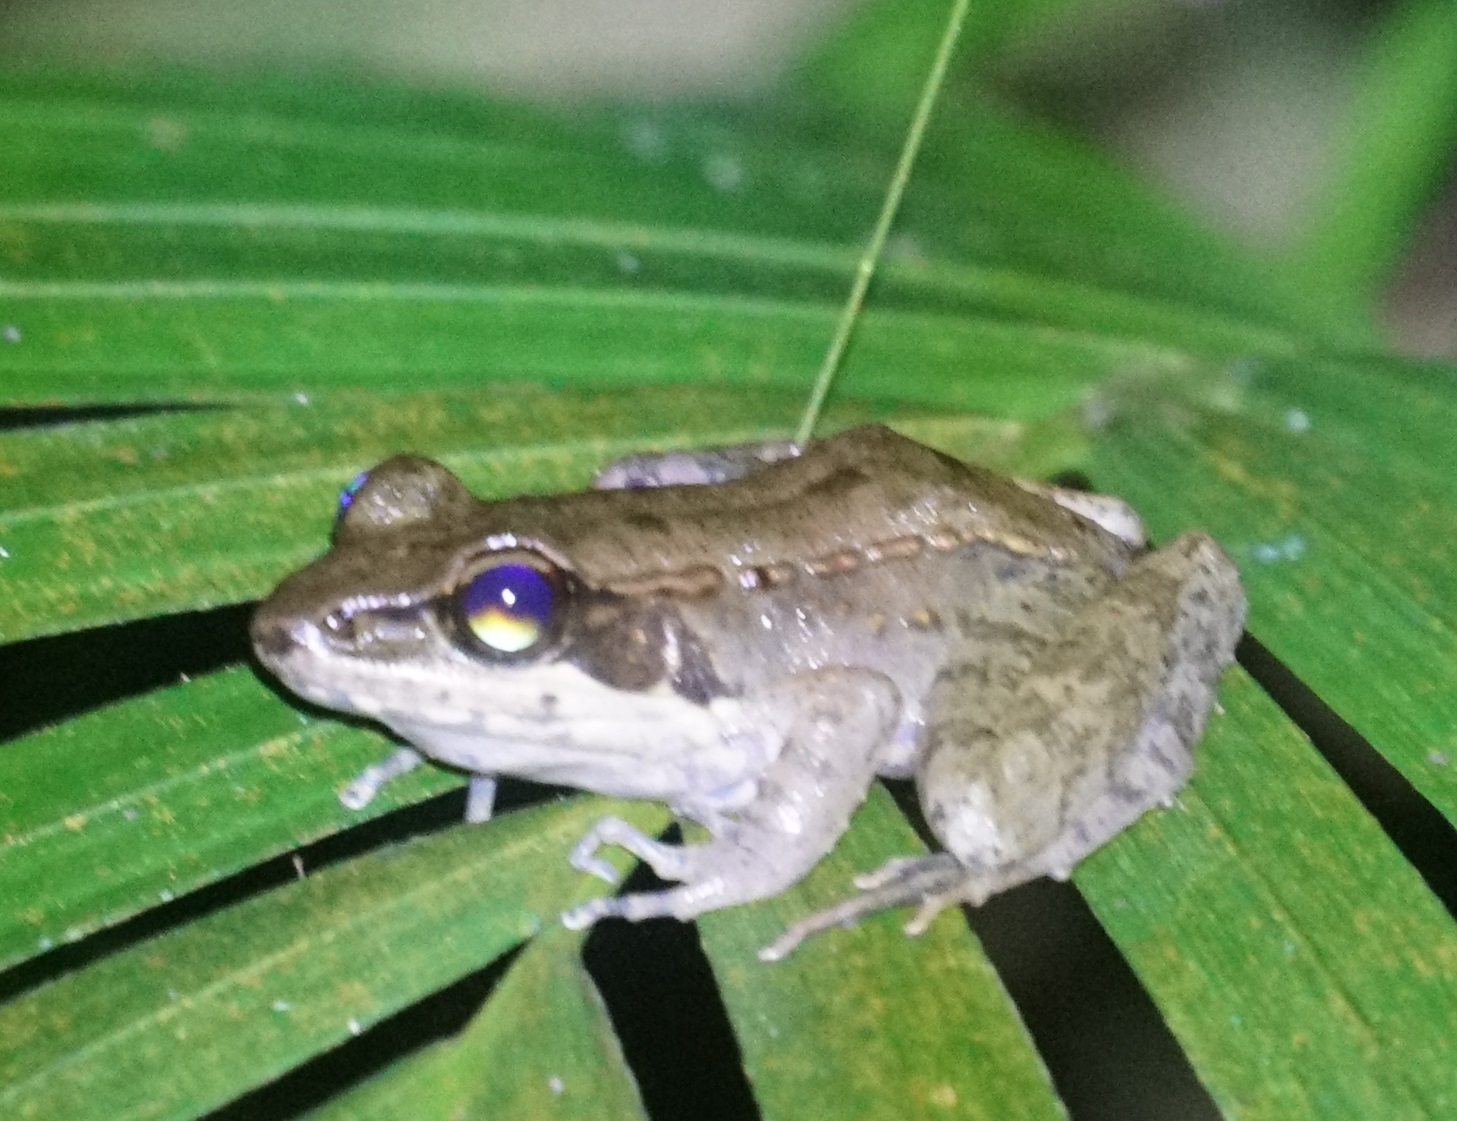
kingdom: Animalia
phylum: Chordata
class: Amphibia
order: Anura
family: Ranidae
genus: Papurana
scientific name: Papurana daemeli
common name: Arhem rana
